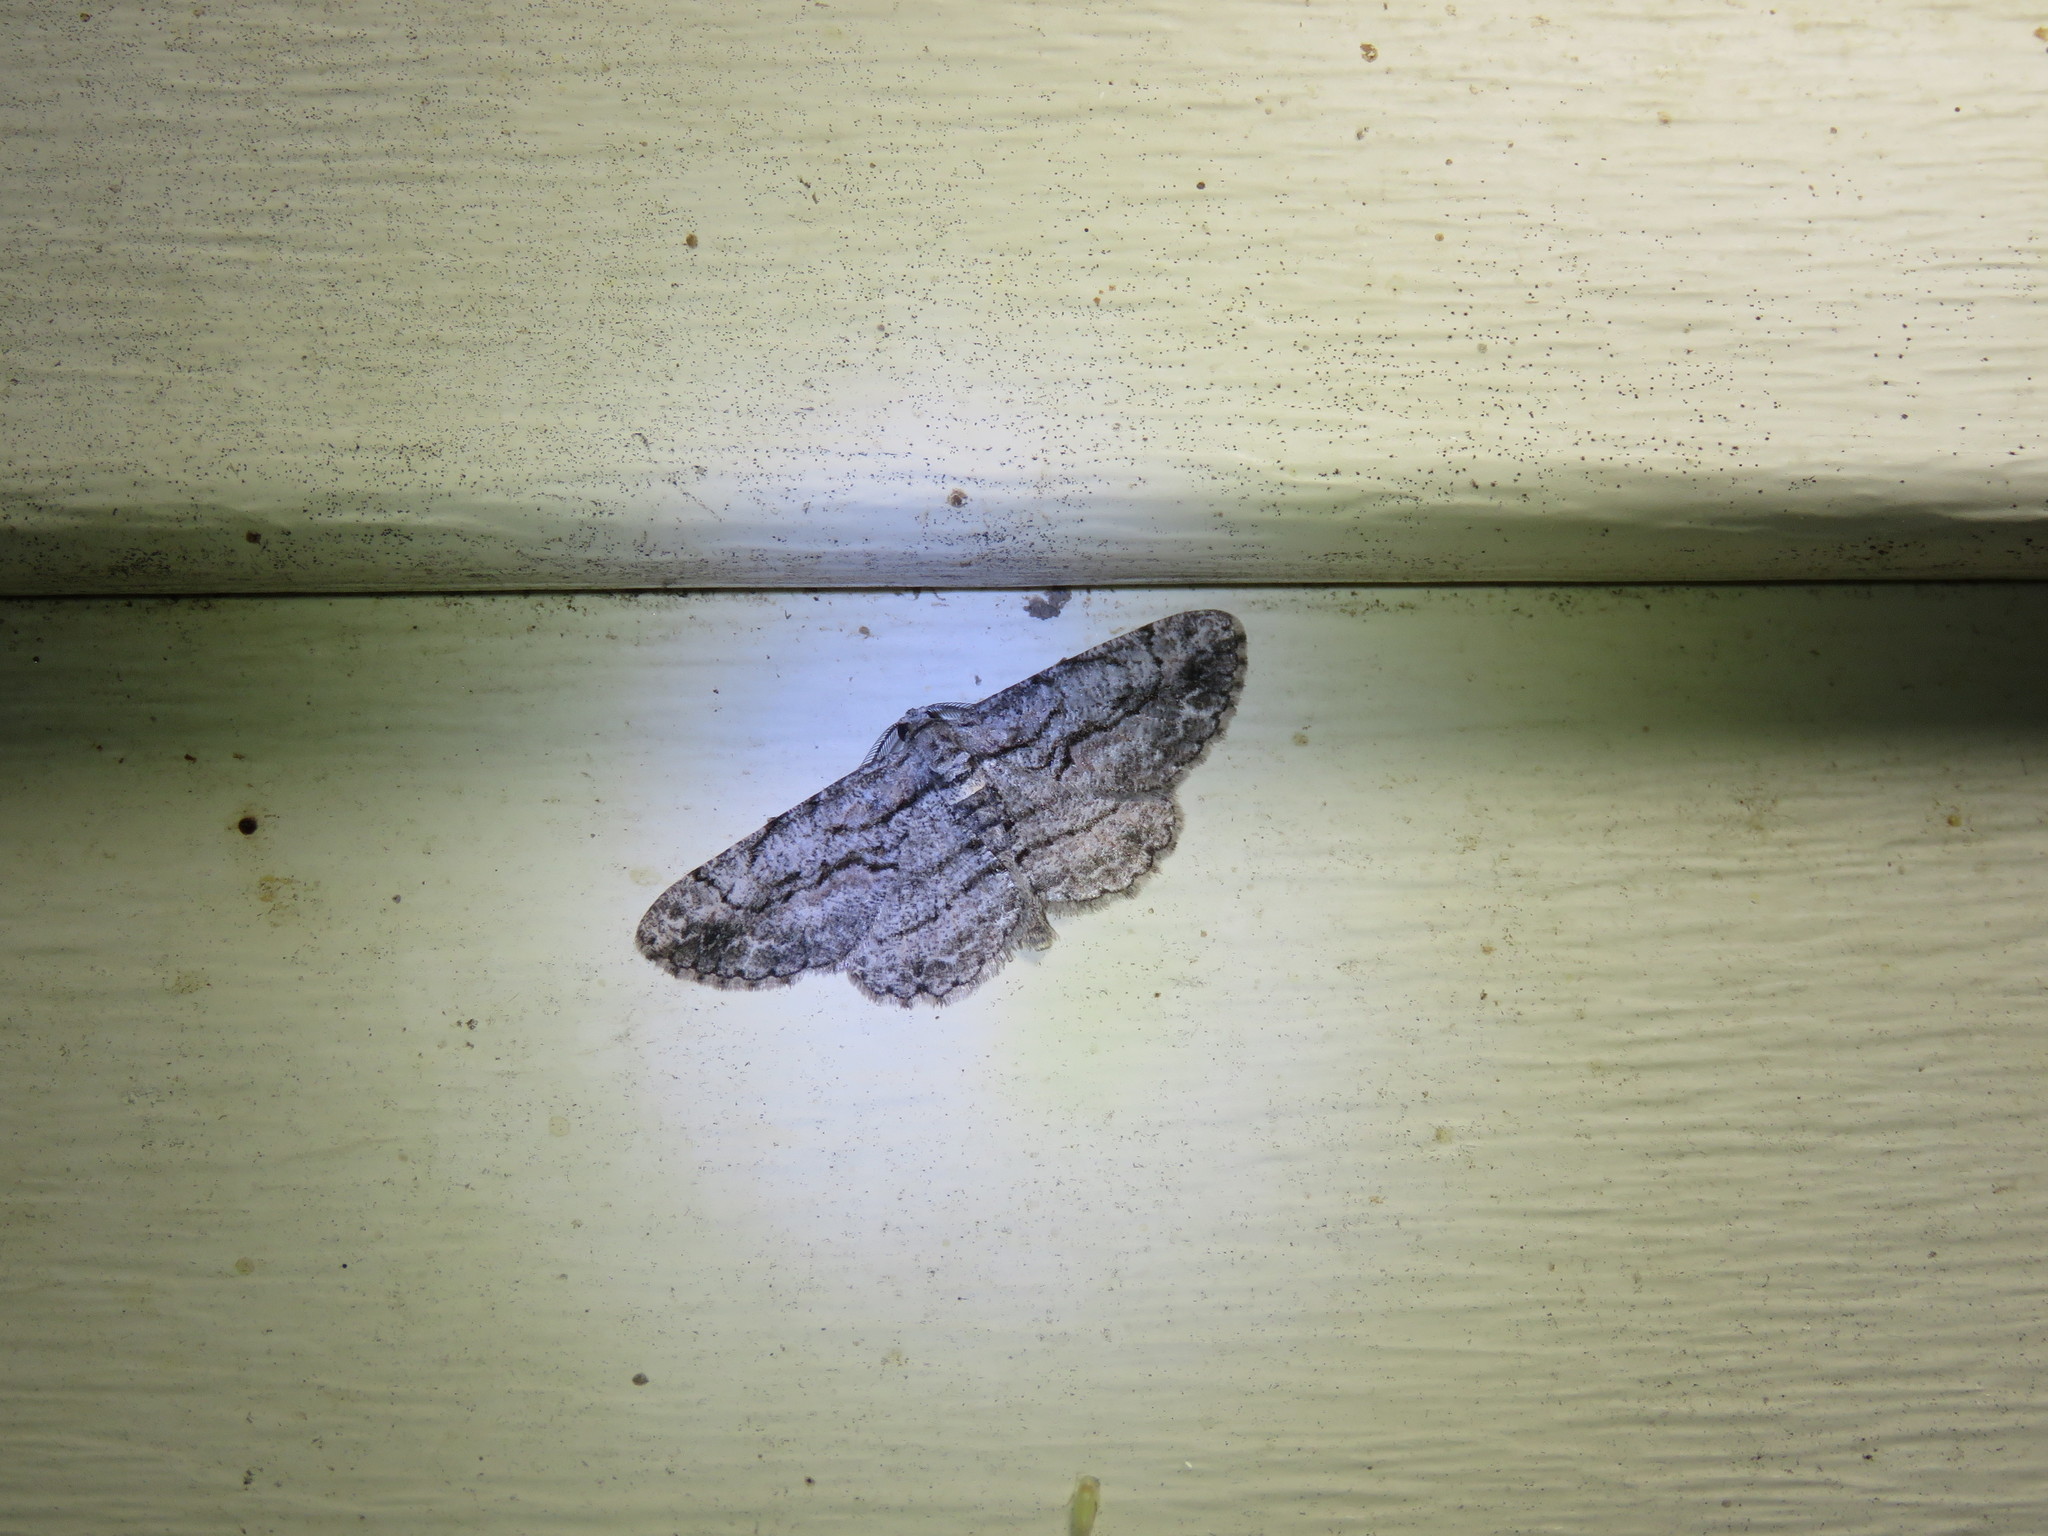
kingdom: Animalia
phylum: Arthropoda
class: Insecta
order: Lepidoptera
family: Geometridae
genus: Anavitrinella
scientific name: Anavitrinella pampinaria
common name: Common gray
